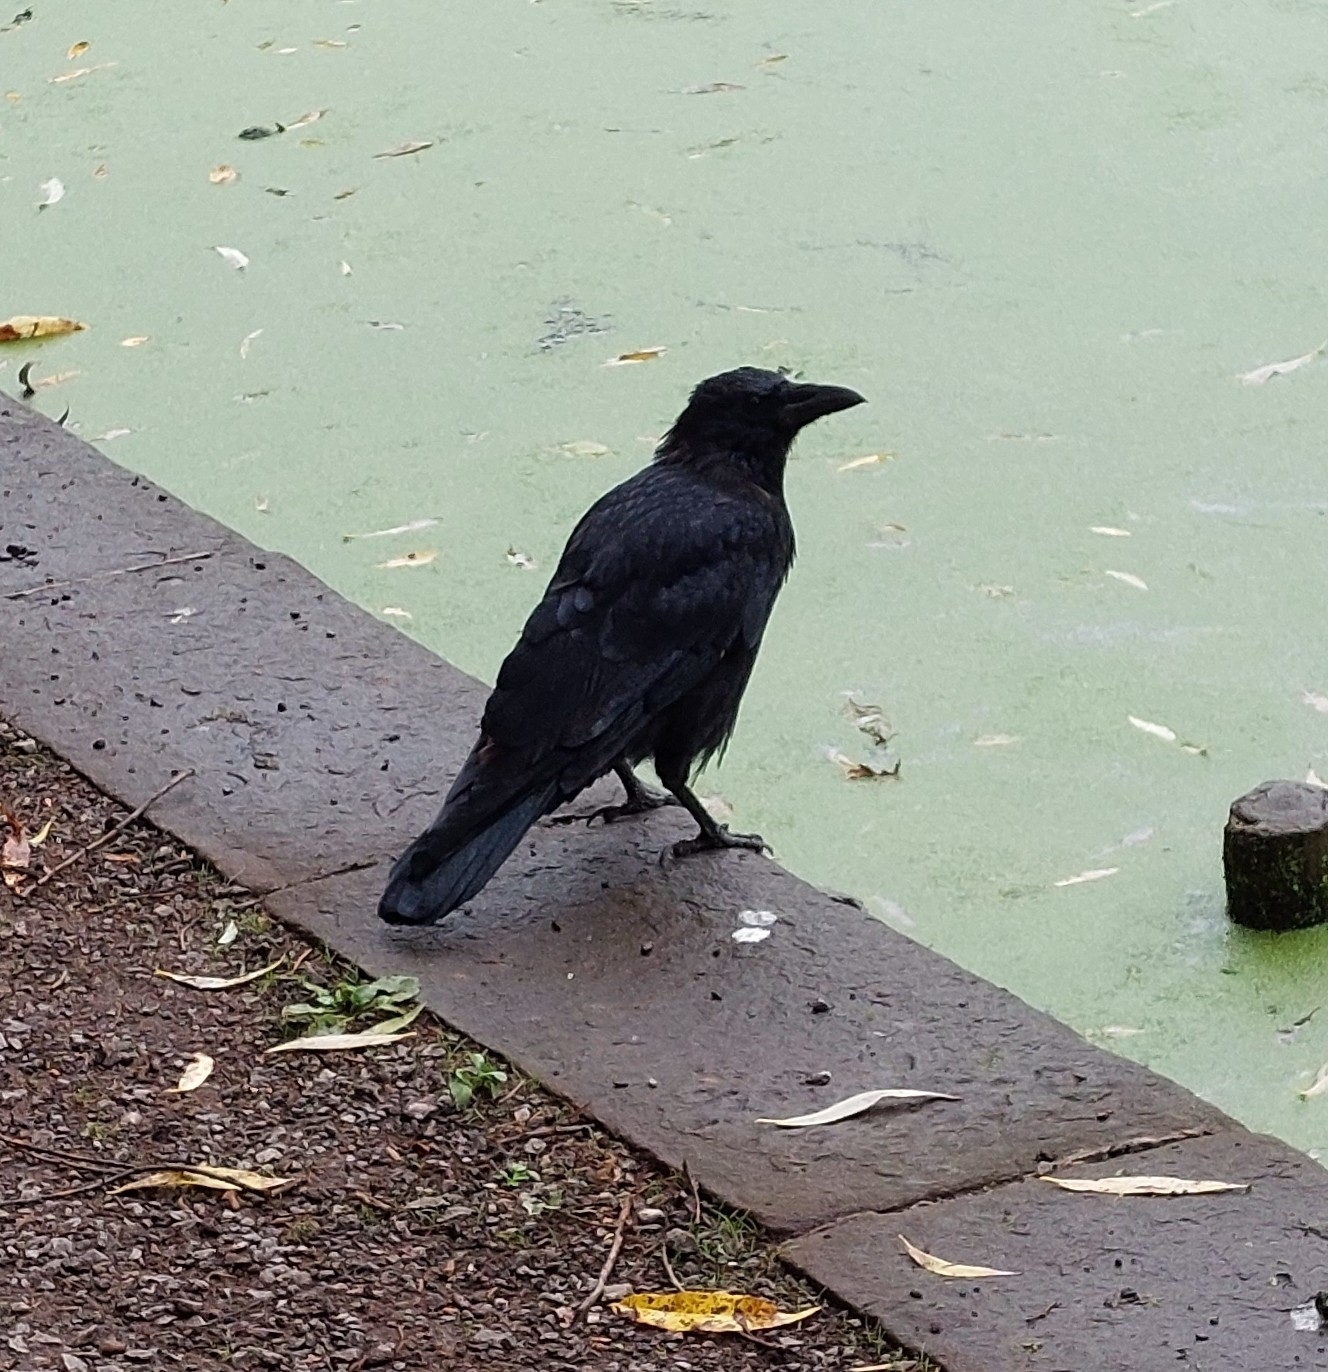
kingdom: Animalia
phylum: Chordata
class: Aves
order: Passeriformes
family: Corvidae
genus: Corvus
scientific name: Corvus corone
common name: Carrion crow
